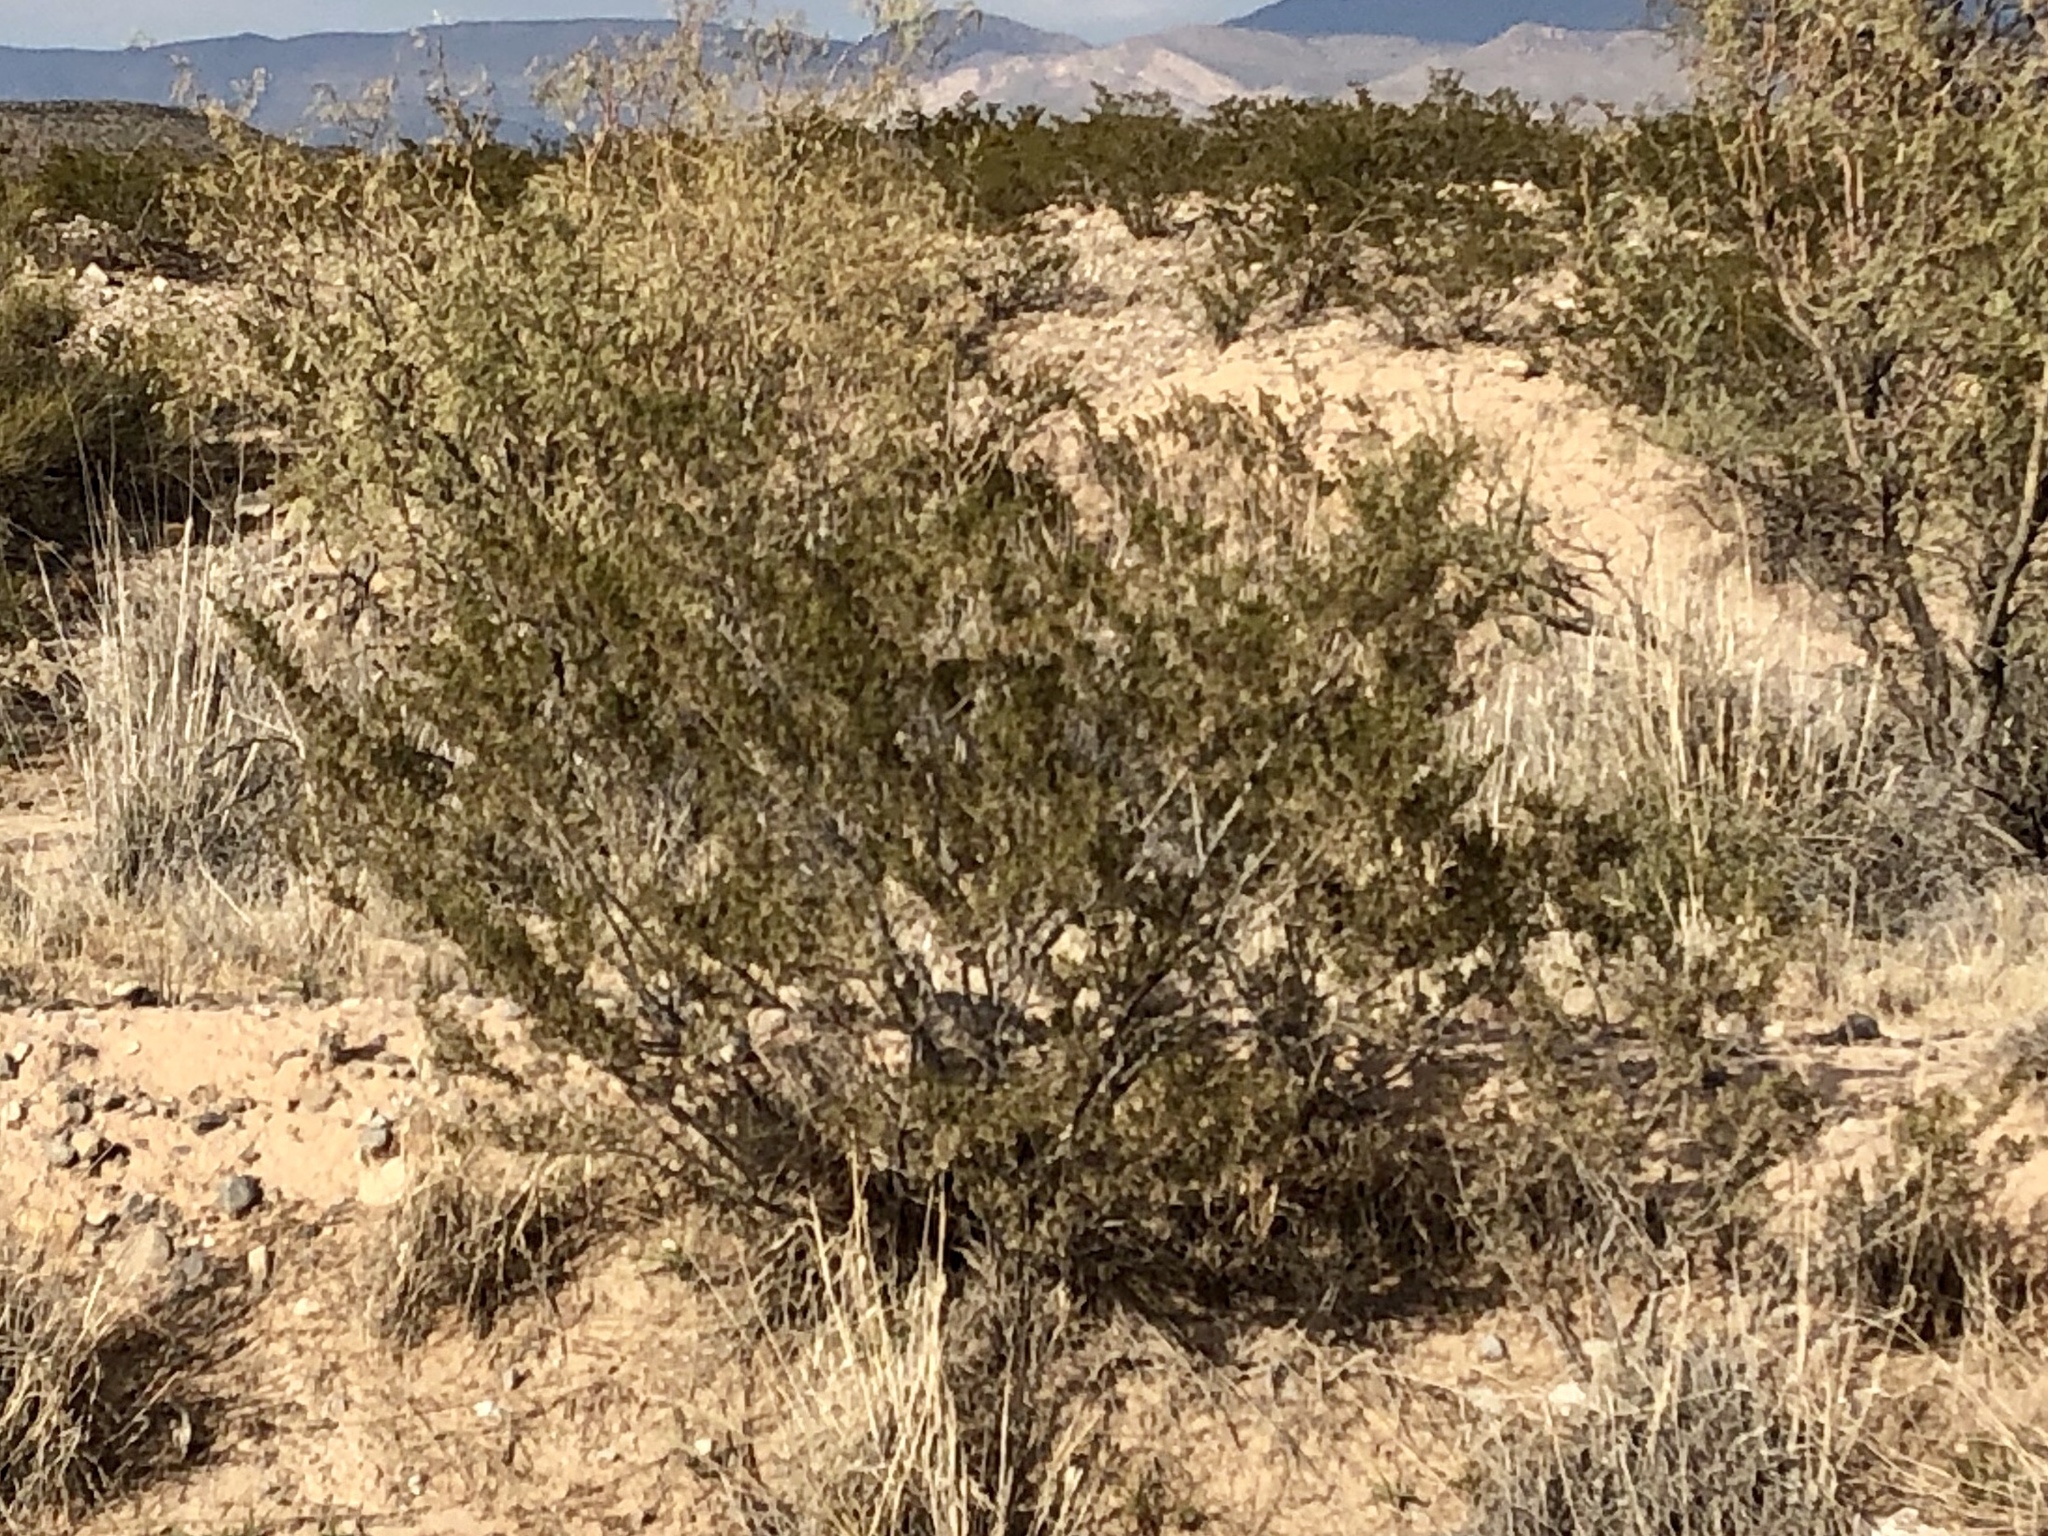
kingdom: Plantae
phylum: Tracheophyta
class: Magnoliopsida
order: Zygophyllales
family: Zygophyllaceae
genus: Larrea
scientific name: Larrea tridentata
